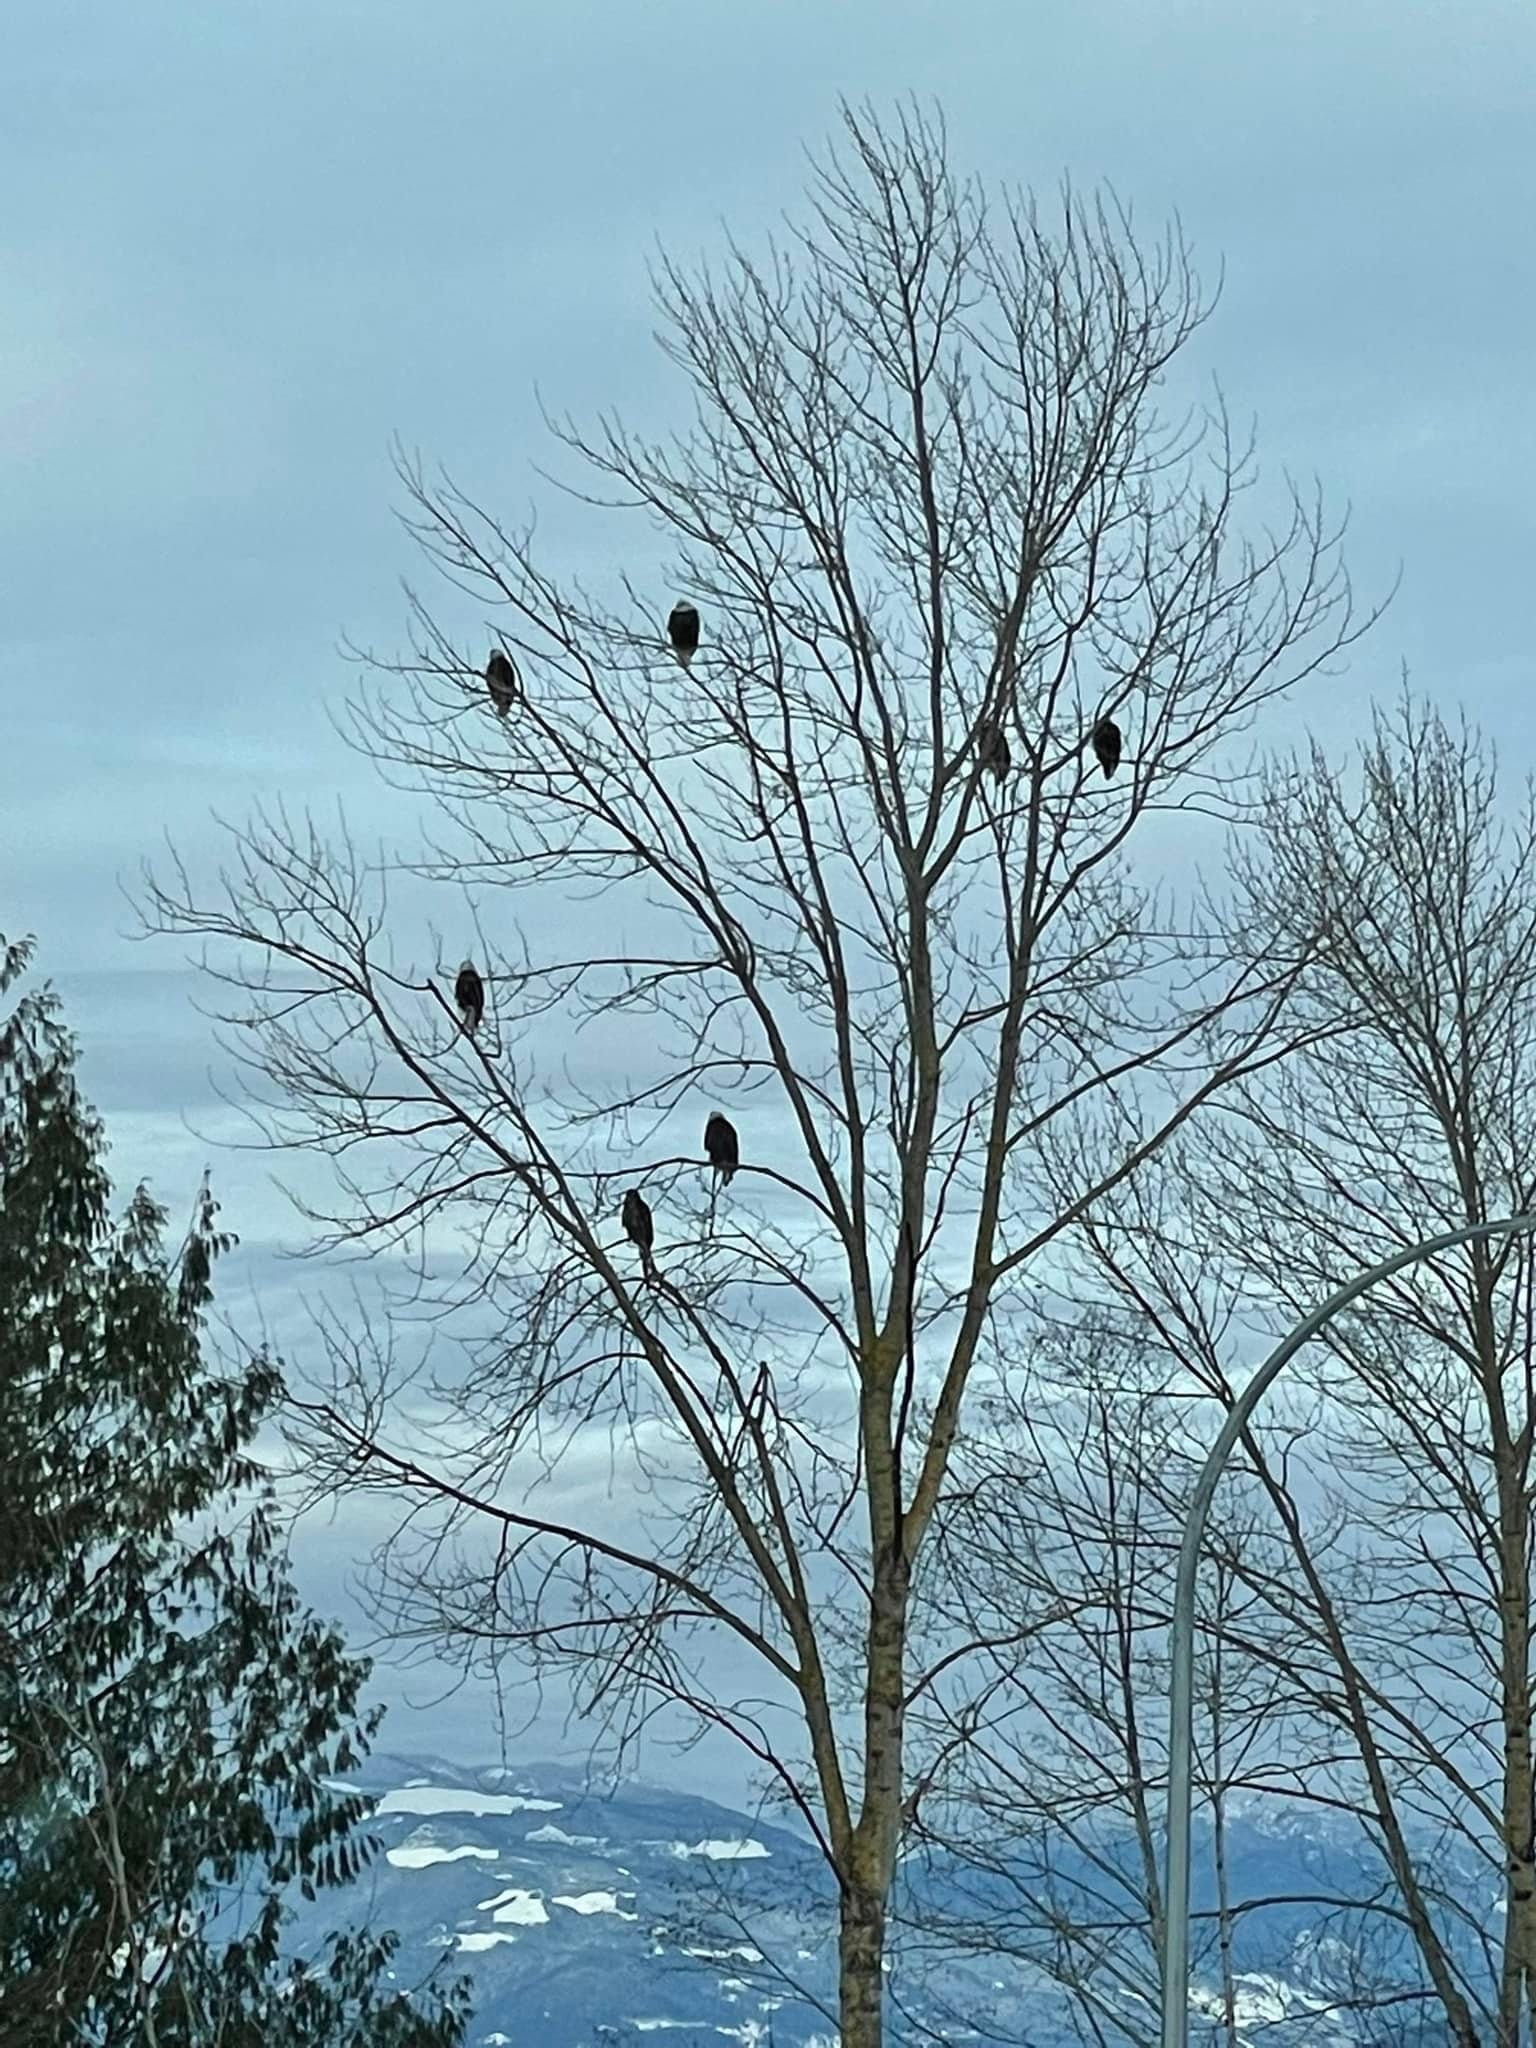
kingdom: Animalia
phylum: Chordata
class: Aves
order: Accipitriformes
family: Accipitridae
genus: Haliaeetus
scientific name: Haliaeetus leucocephalus
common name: Bald eagle
